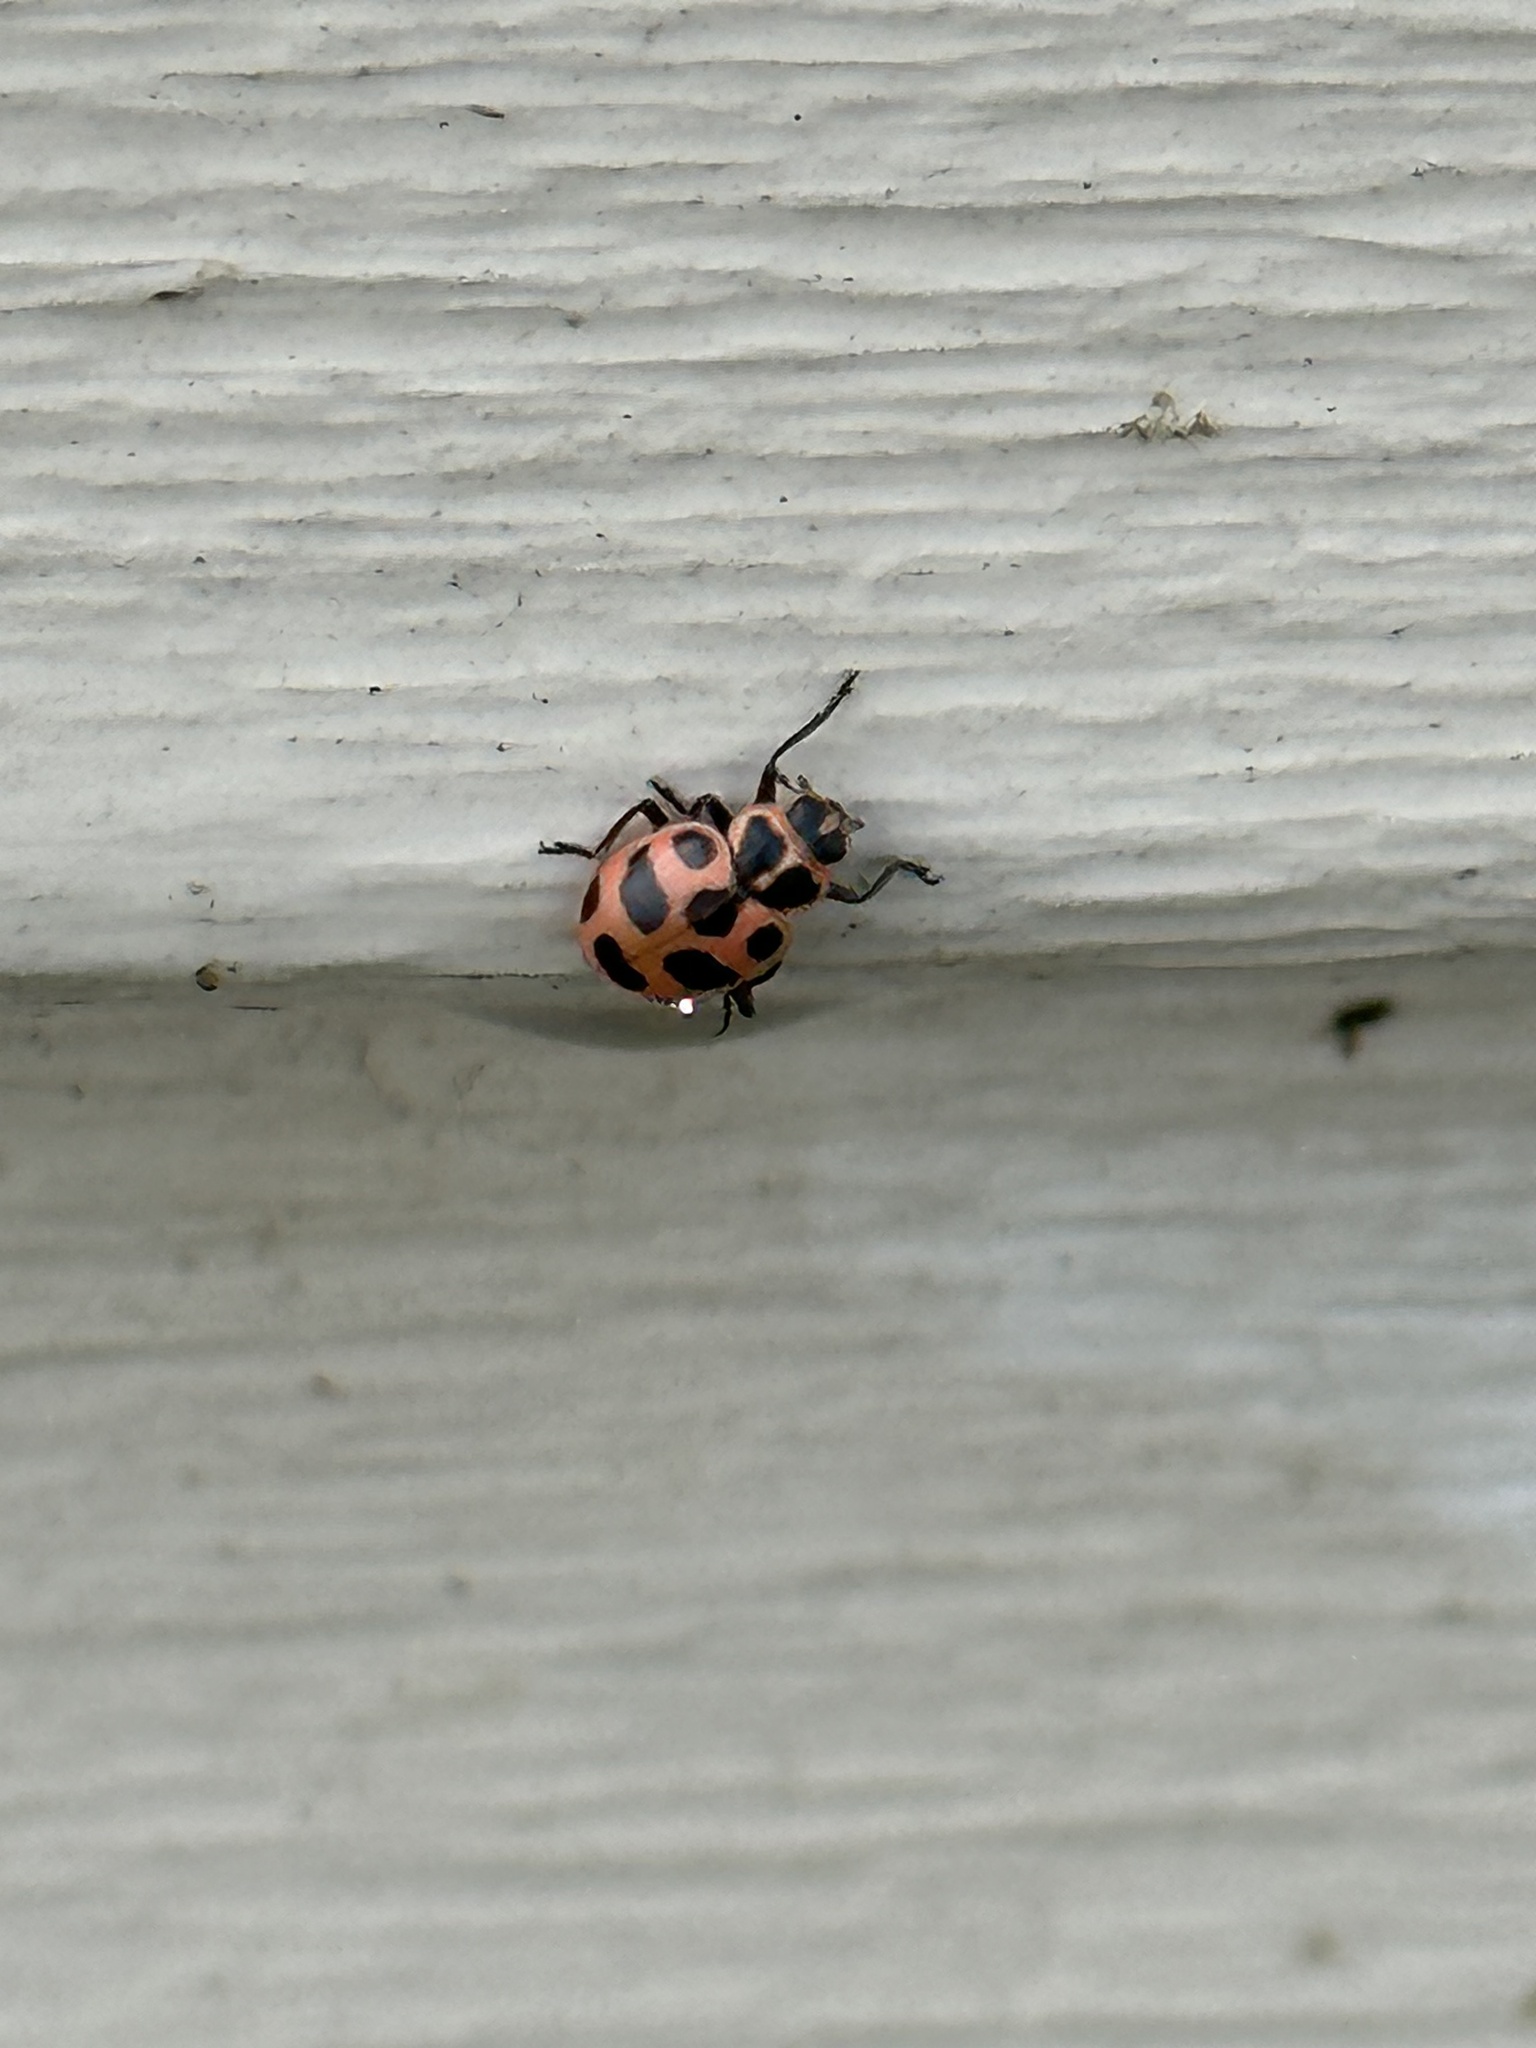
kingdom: Animalia
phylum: Arthropoda
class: Insecta
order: Coleoptera
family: Coccinellidae
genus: Coleomegilla
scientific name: Coleomegilla maculata
